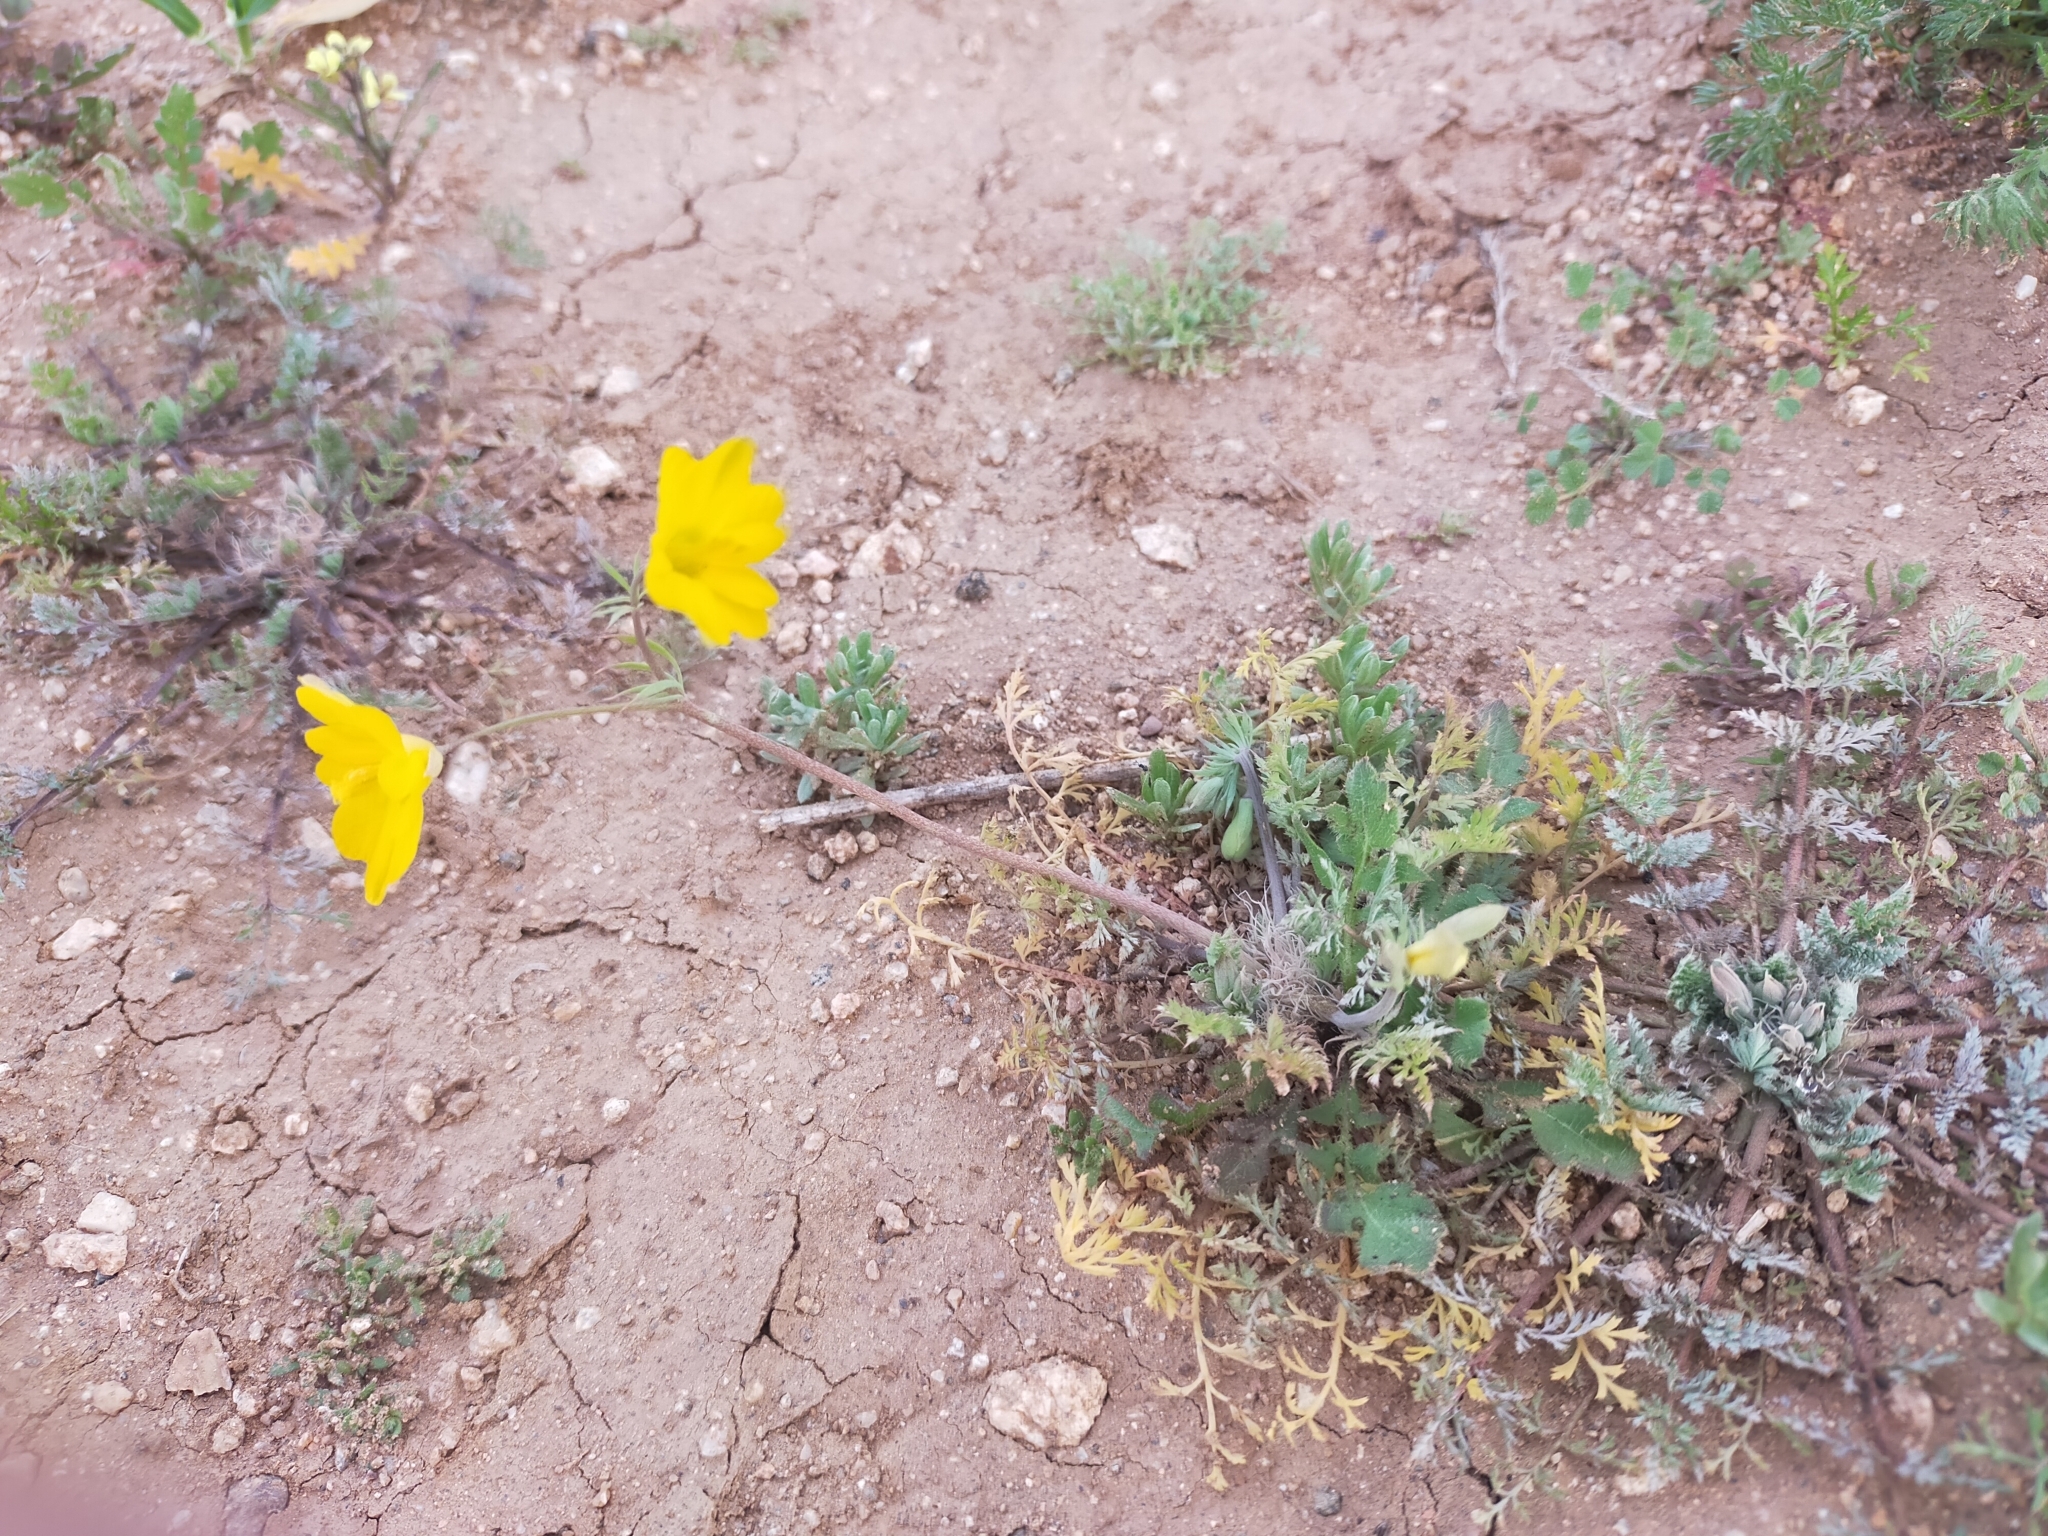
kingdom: Plantae
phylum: Tracheophyta
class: Magnoliopsida
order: Ranunculales
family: Papaveraceae
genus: Hypecoum
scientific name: Hypecoum imberbe
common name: Sicklefruit hypecoum
